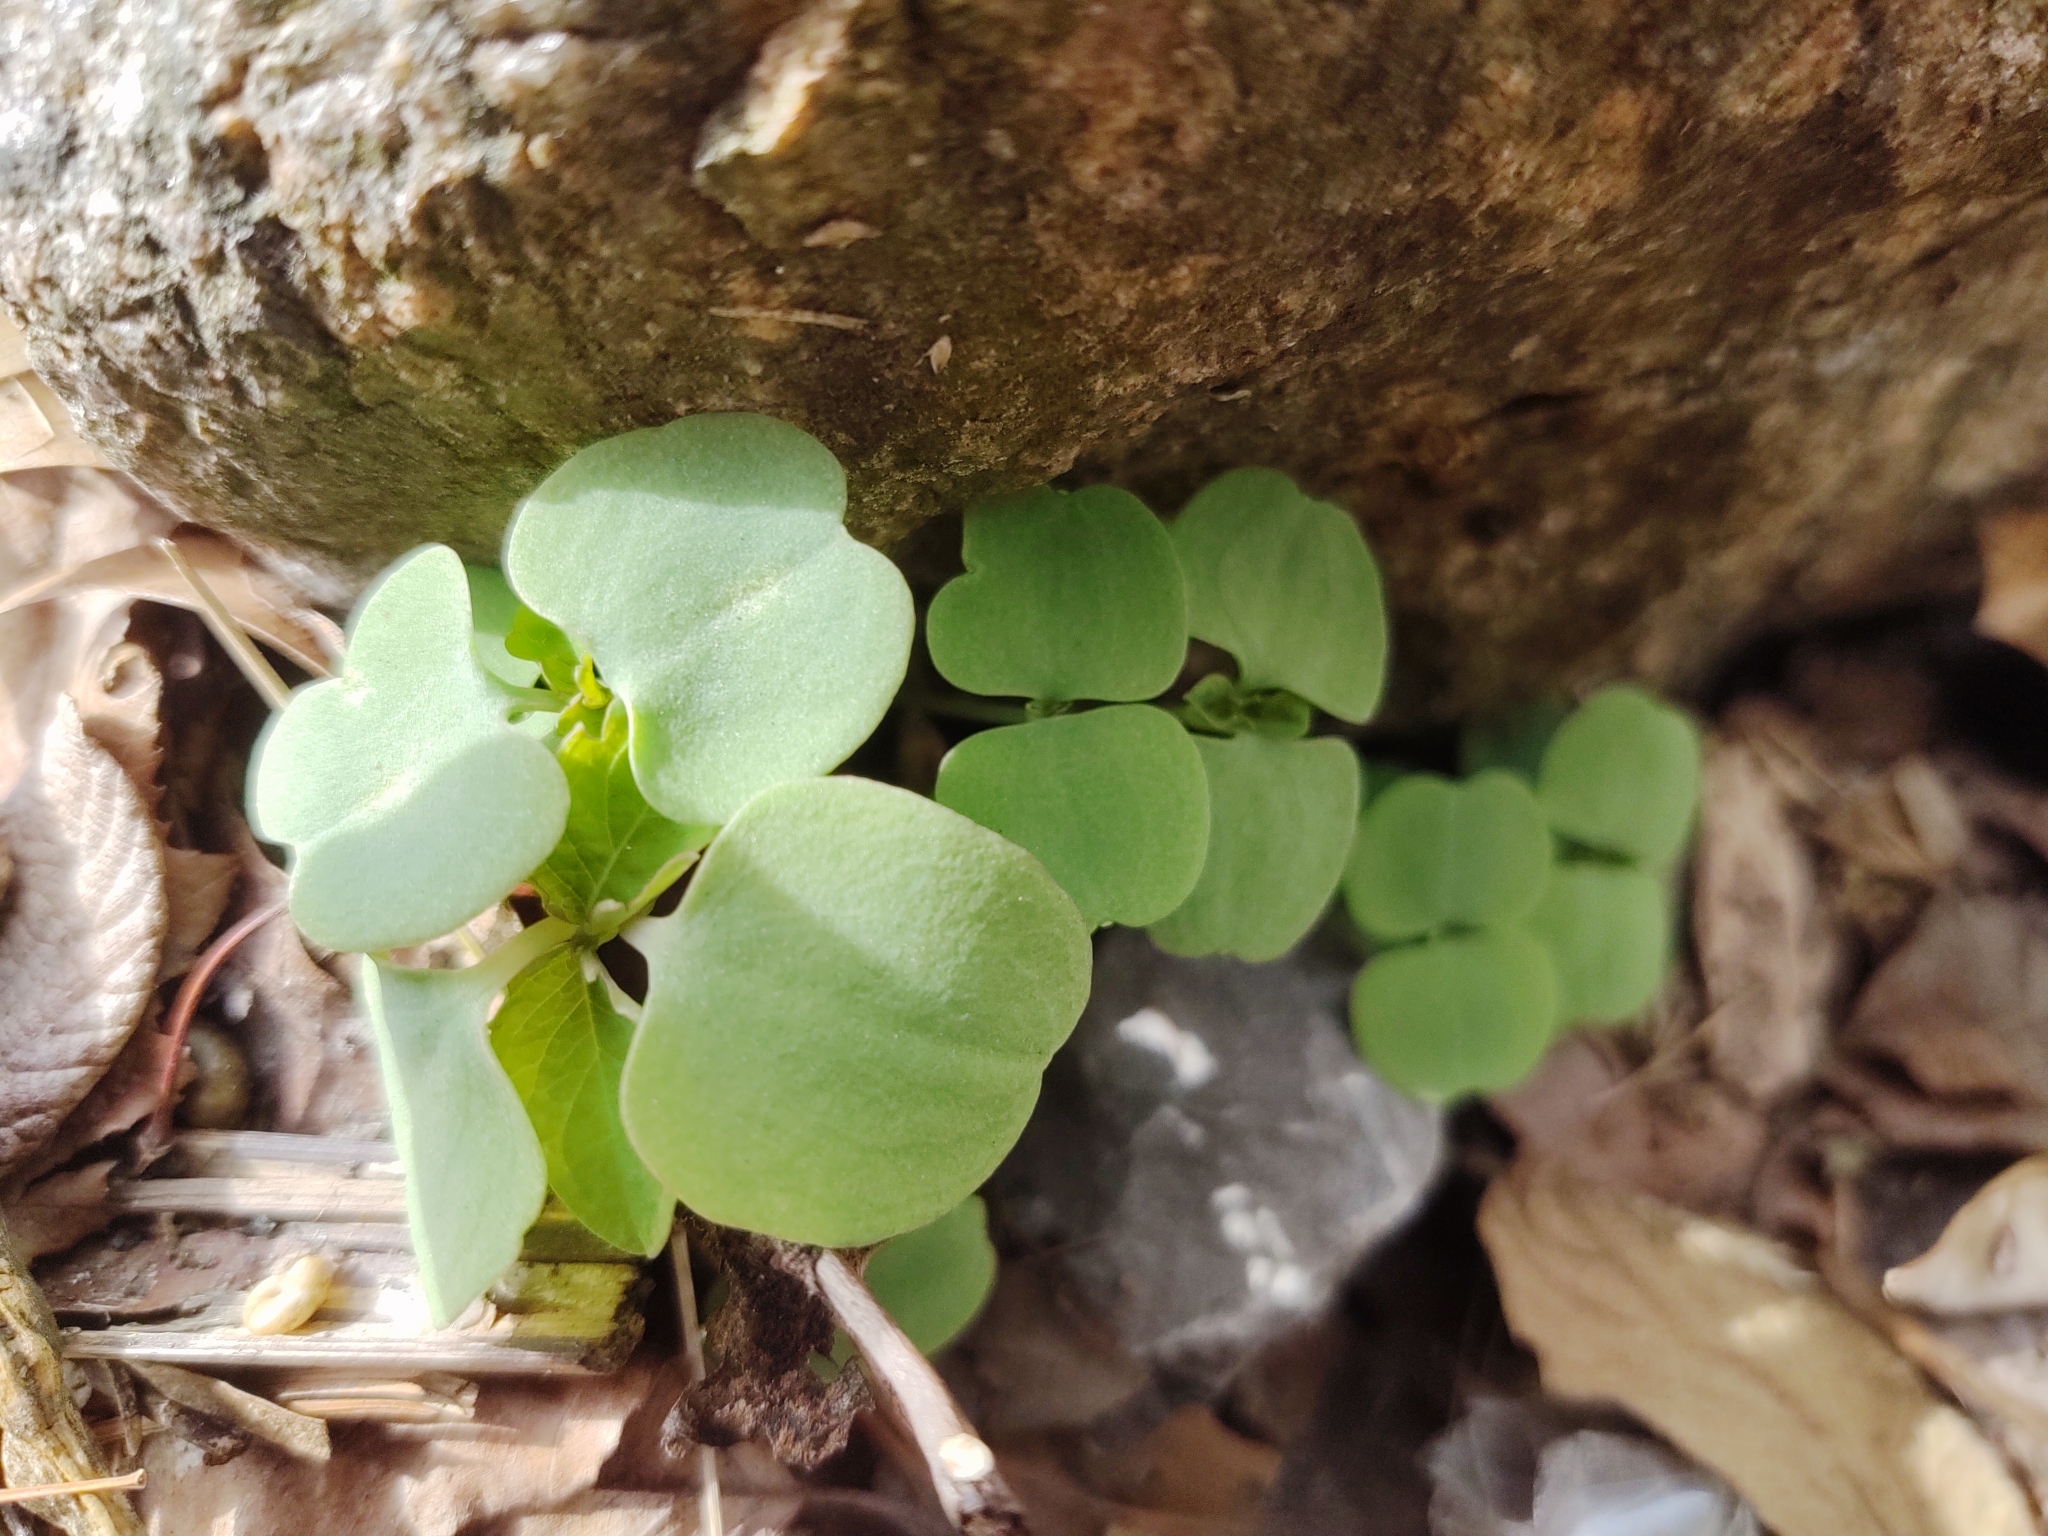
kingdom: Plantae
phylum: Tracheophyta
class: Magnoliopsida
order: Ericales
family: Balsaminaceae
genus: Impatiens
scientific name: Impatiens
